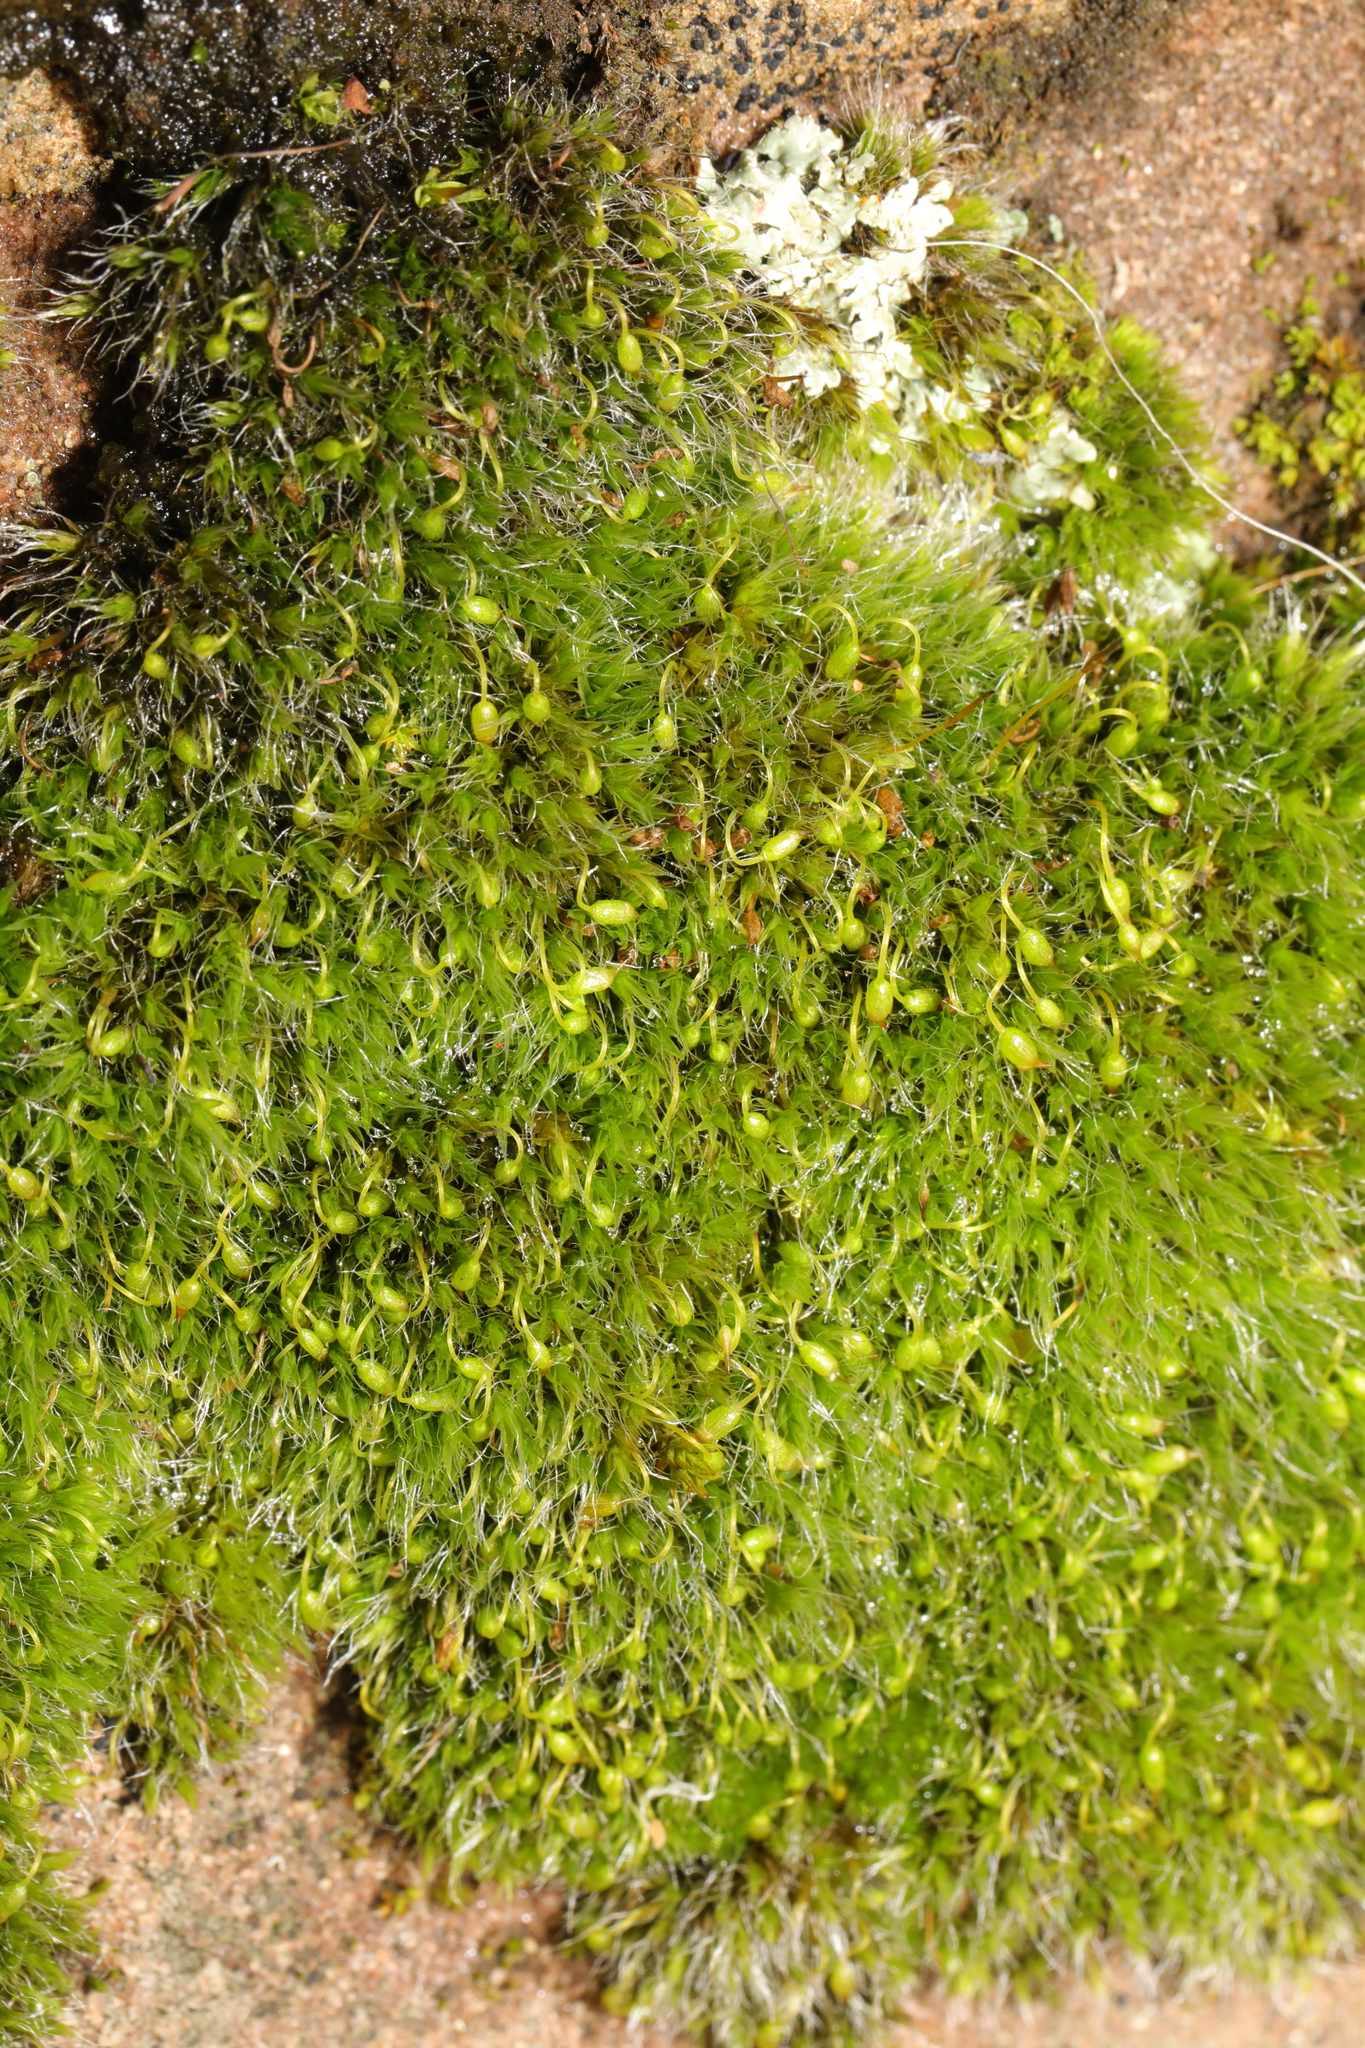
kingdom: Plantae
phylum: Bryophyta
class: Bryopsida
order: Grimmiales
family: Grimmiaceae
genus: Grimmia
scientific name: Grimmia pulvinata
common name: Grey-cushioned grimmia
